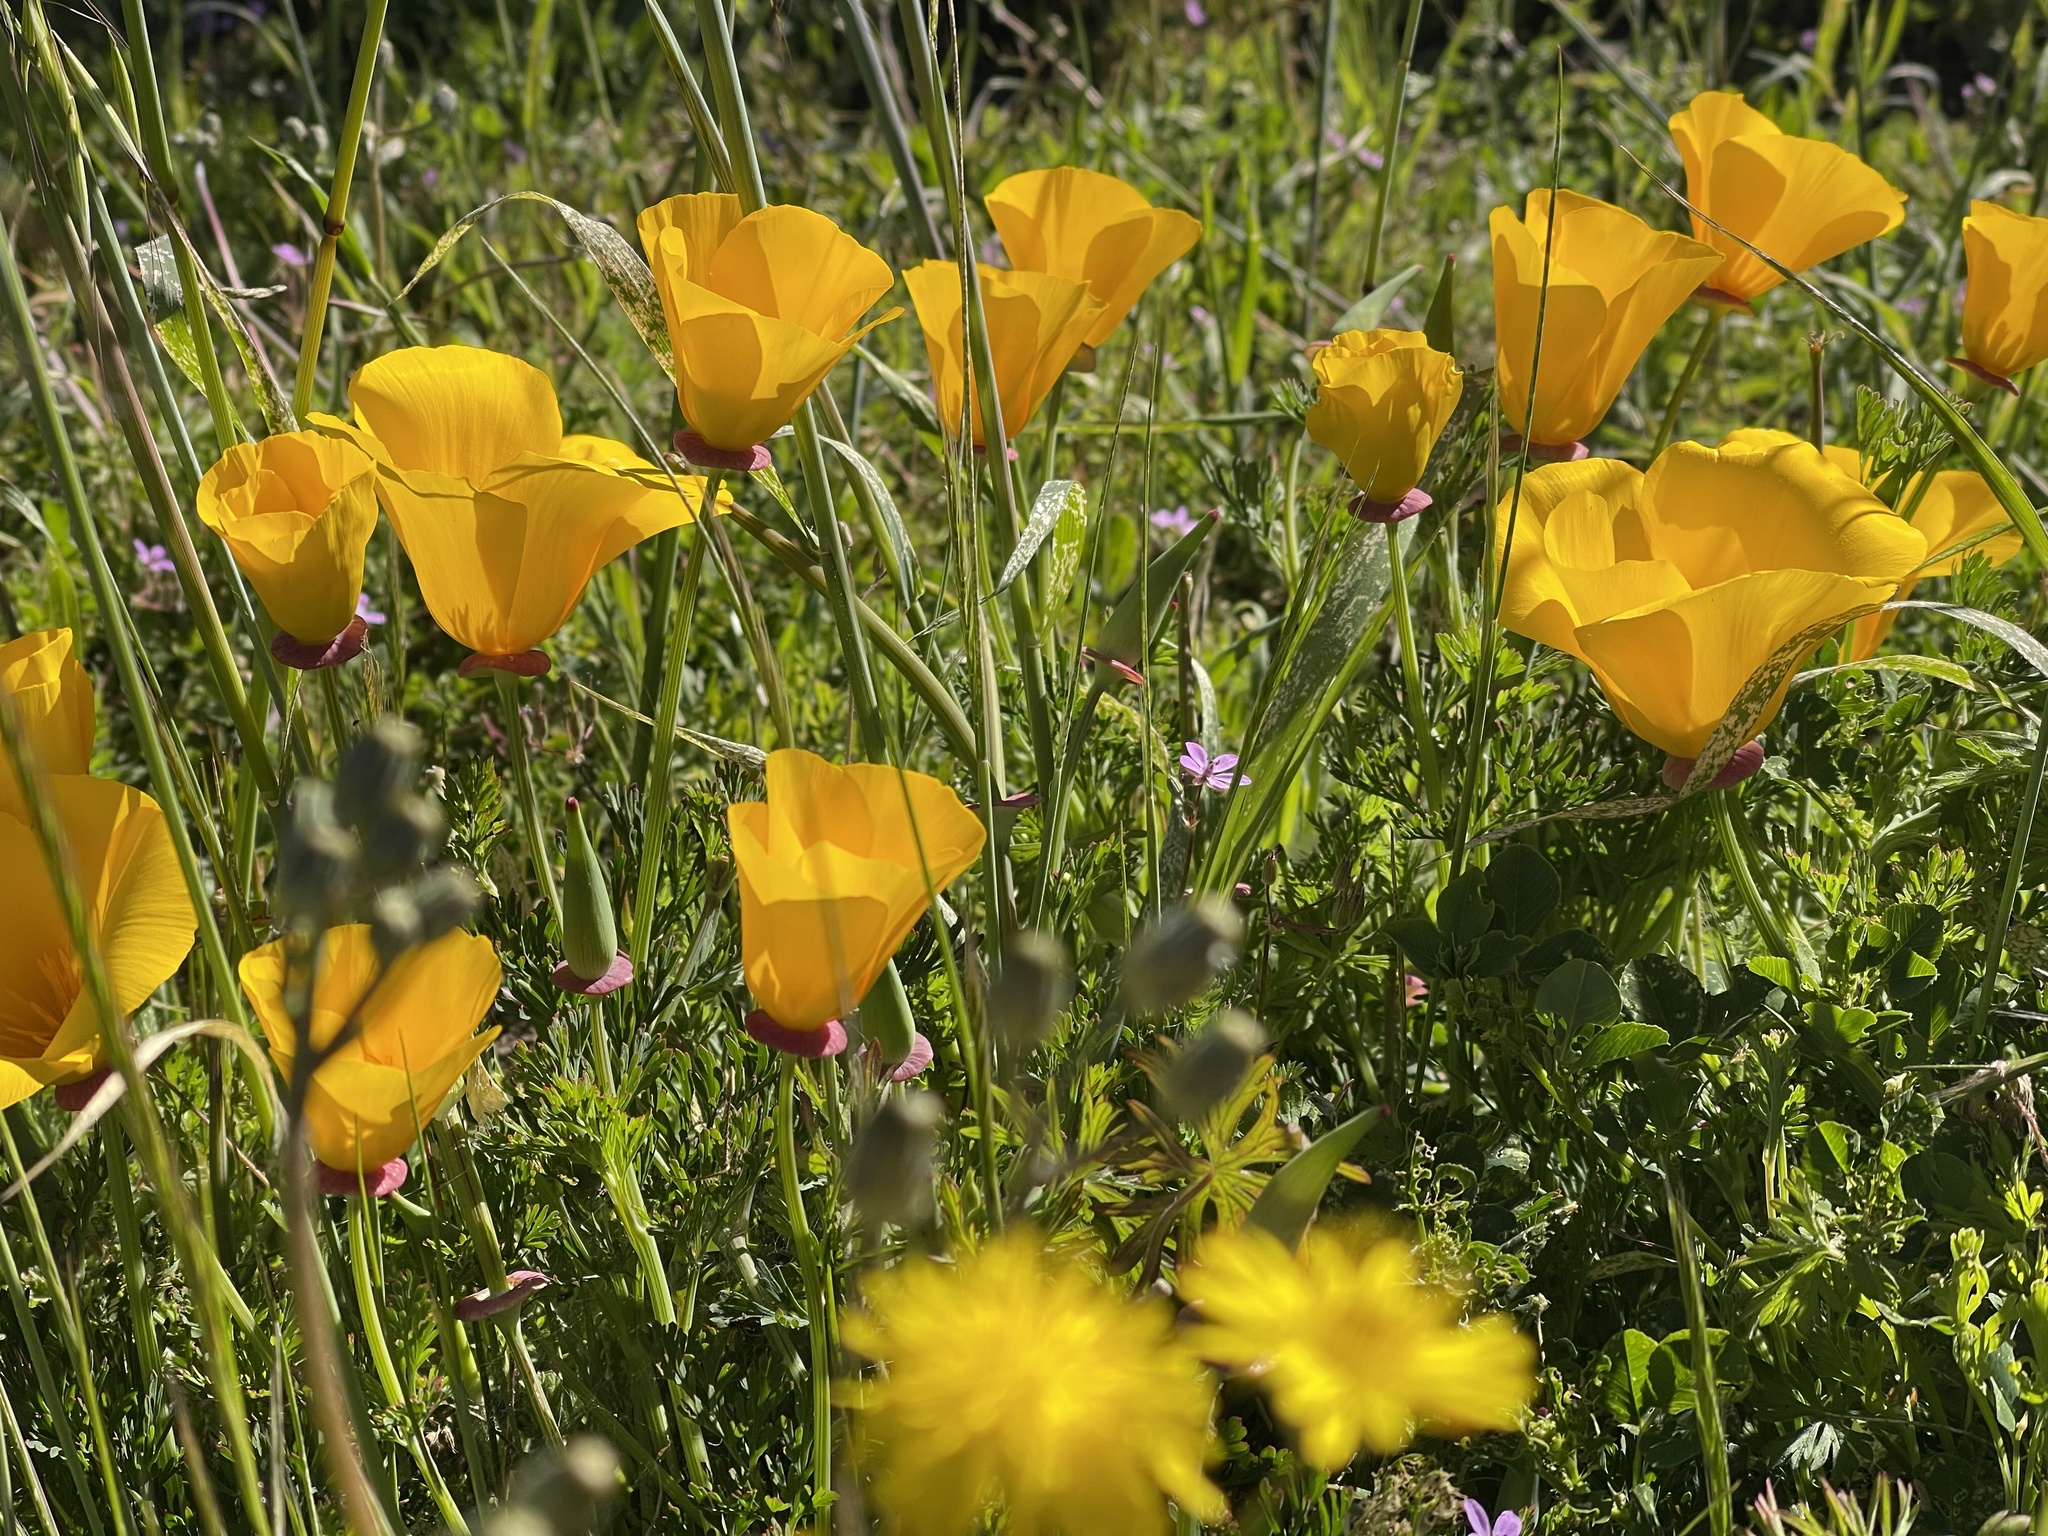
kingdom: Plantae
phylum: Tracheophyta
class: Magnoliopsida
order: Ranunculales
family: Papaveraceae
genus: Eschscholzia
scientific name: Eschscholzia californica
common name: California poppy
